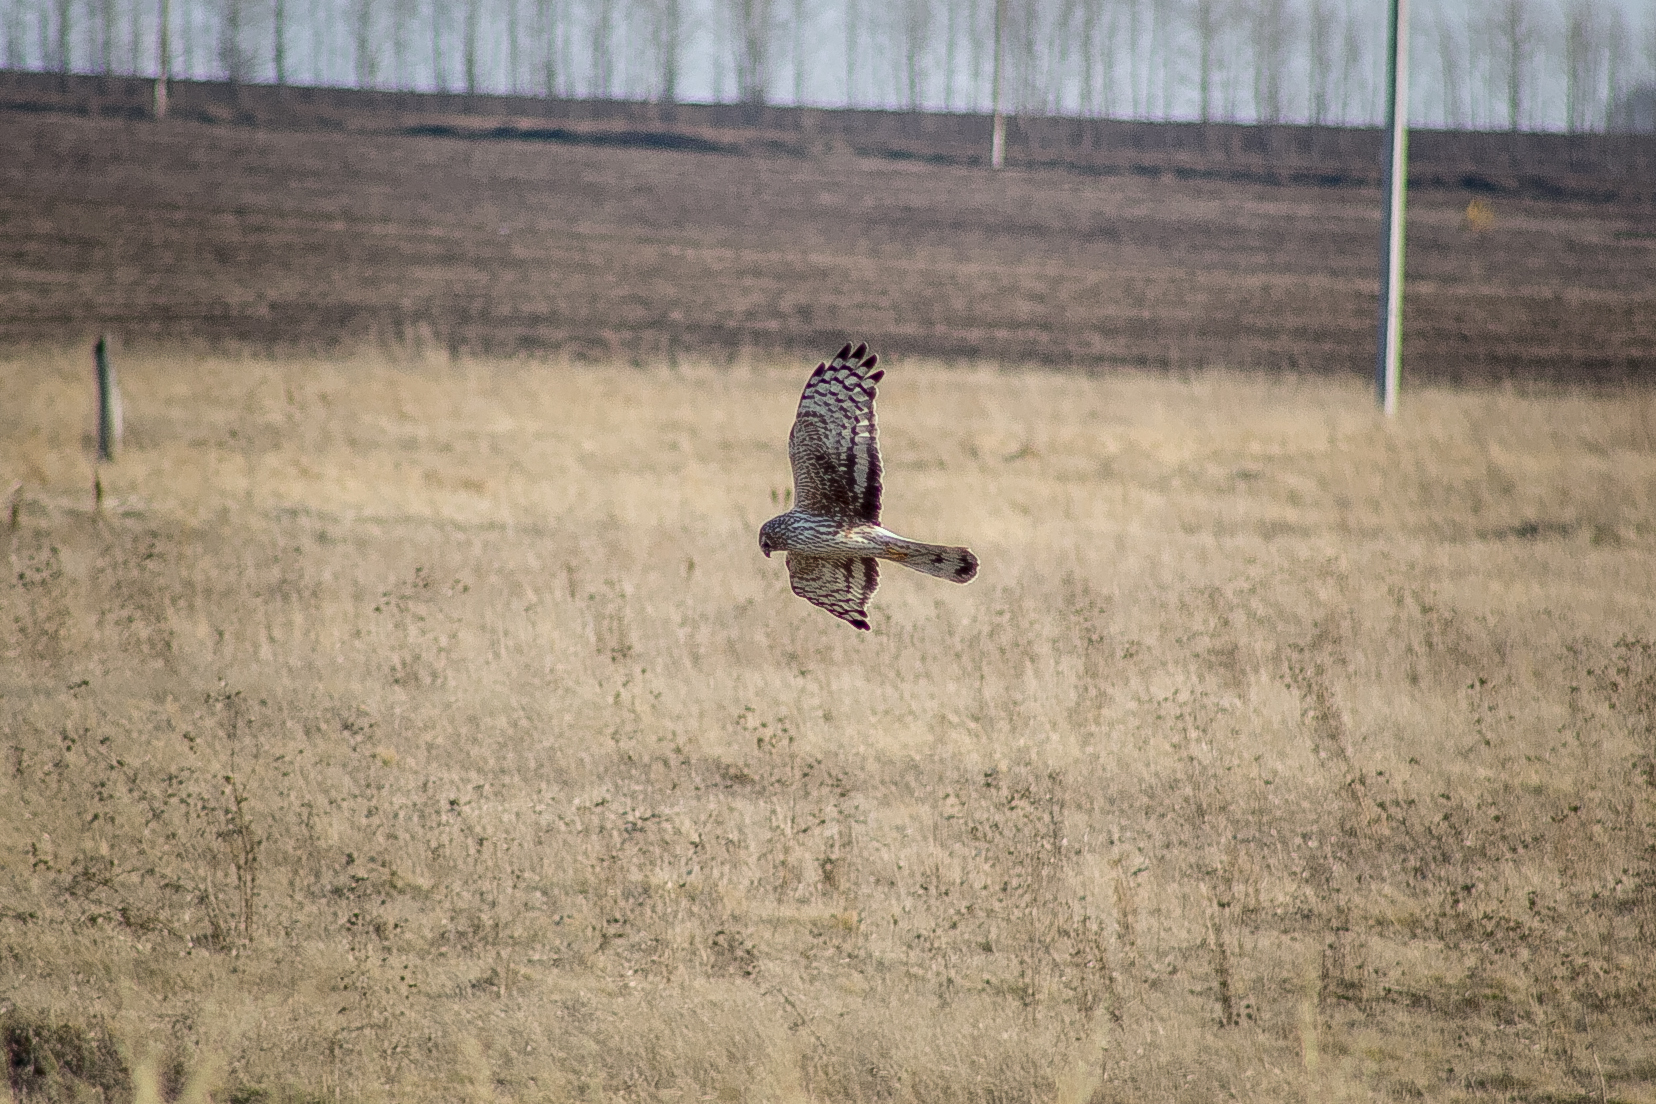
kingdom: Animalia
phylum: Chordata
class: Aves
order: Accipitriformes
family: Accipitridae
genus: Circus
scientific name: Circus cyaneus
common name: Hen harrier
